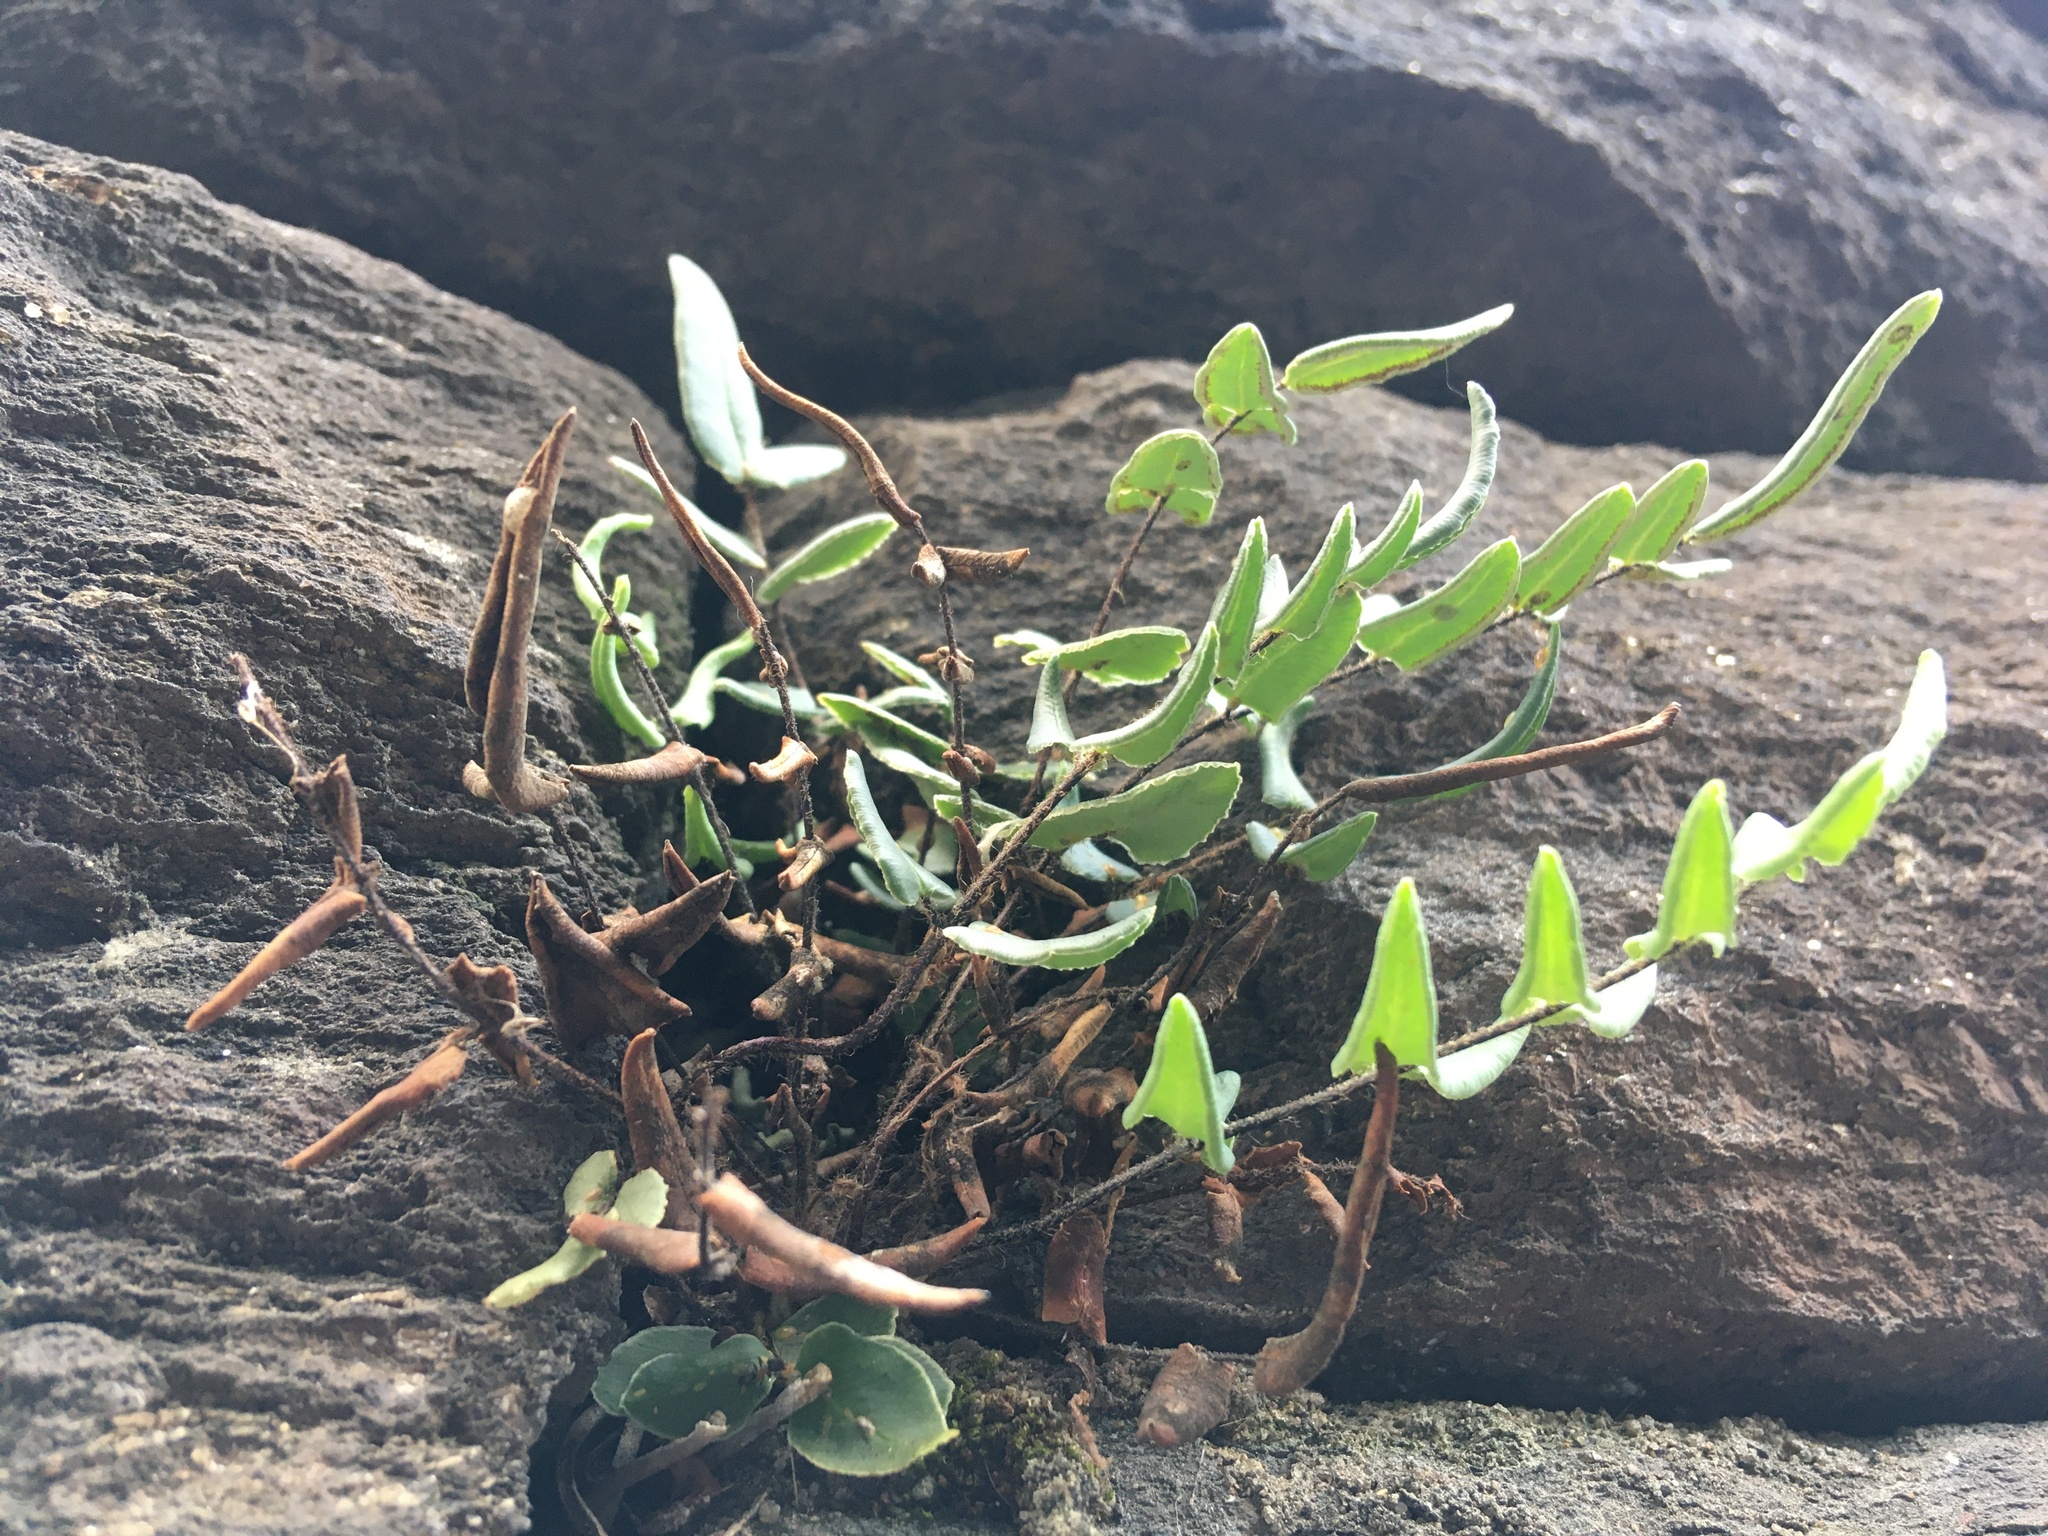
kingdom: Plantae
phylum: Tracheophyta
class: Polypodiopsida
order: Polypodiales
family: Pteridaceae
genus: Pellaea
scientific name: Pellaea atropurpurea
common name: Hairy cliffbrake
